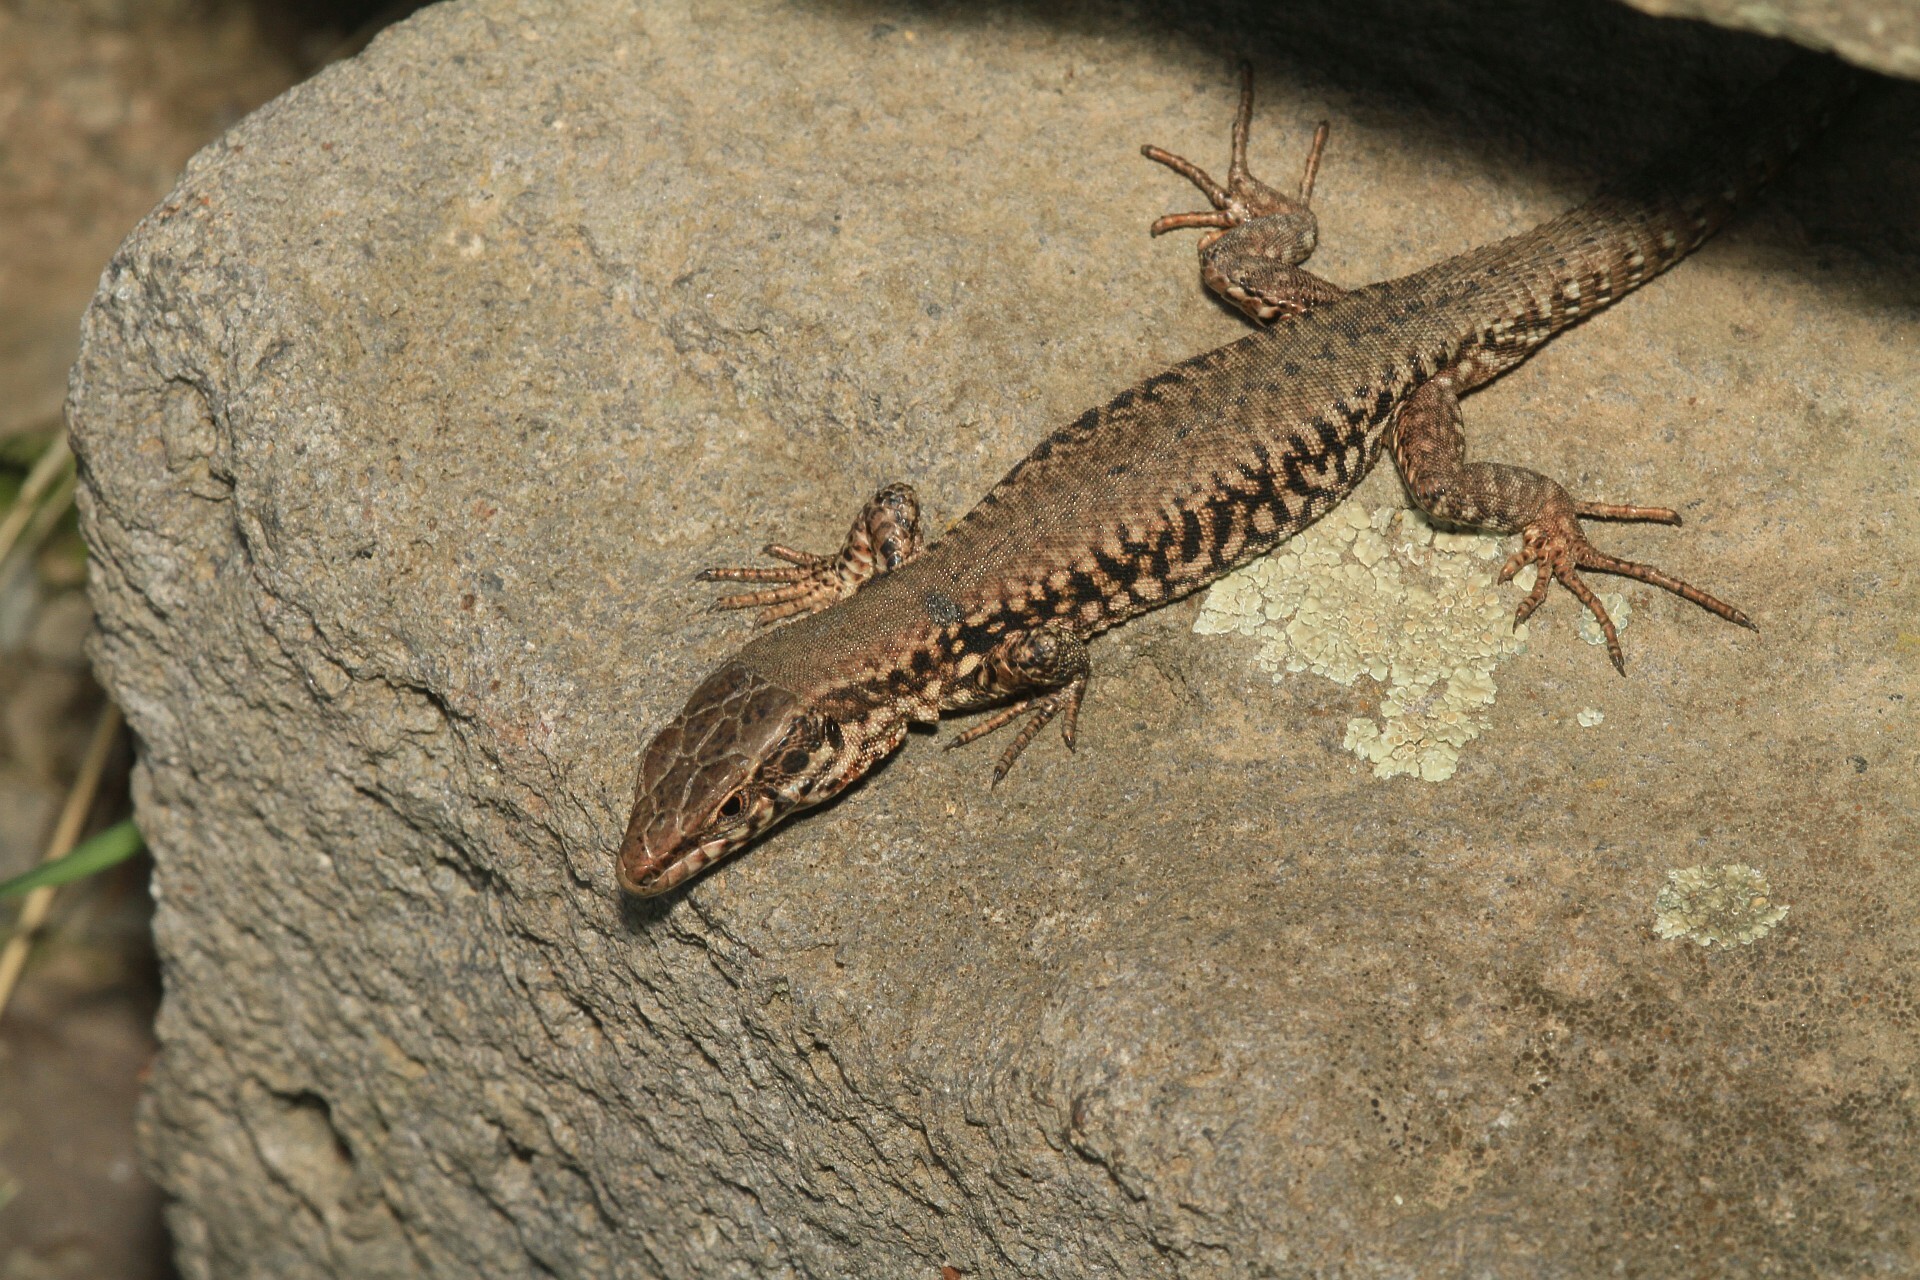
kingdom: Animalia
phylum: Chordata
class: Squamata
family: Lacertidae
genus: Podarcis
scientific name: Podarcis muralis
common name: Common wall lizard
